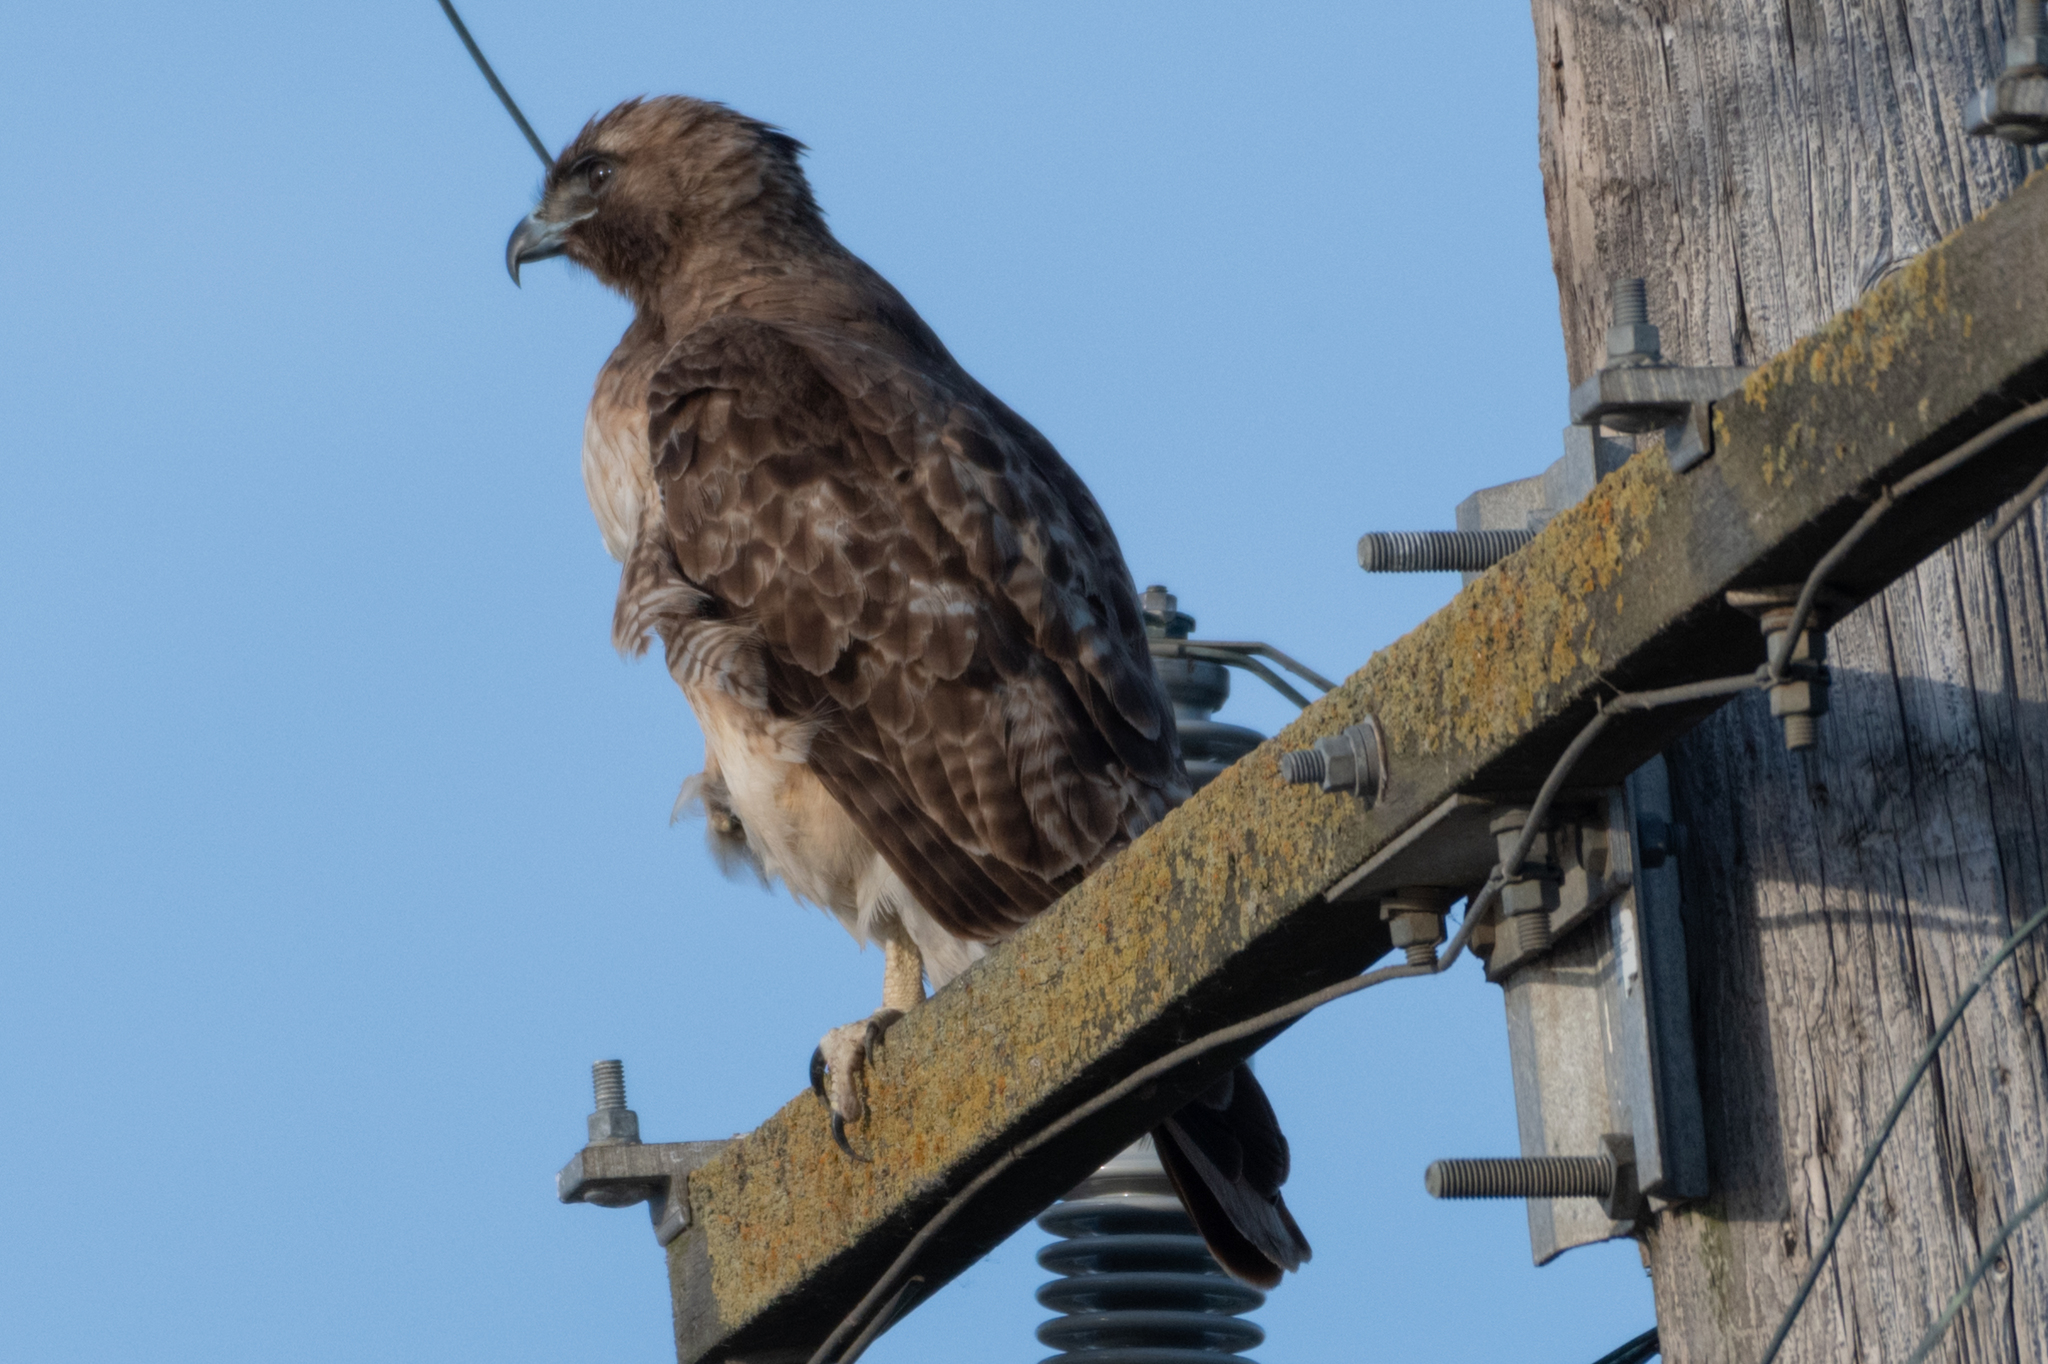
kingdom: Animalia
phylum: Chordata
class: Aves
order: Accipitriformes
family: Accipitridae
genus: Buteo
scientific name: Buteo jamaicensis
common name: Red-tailed hawk
